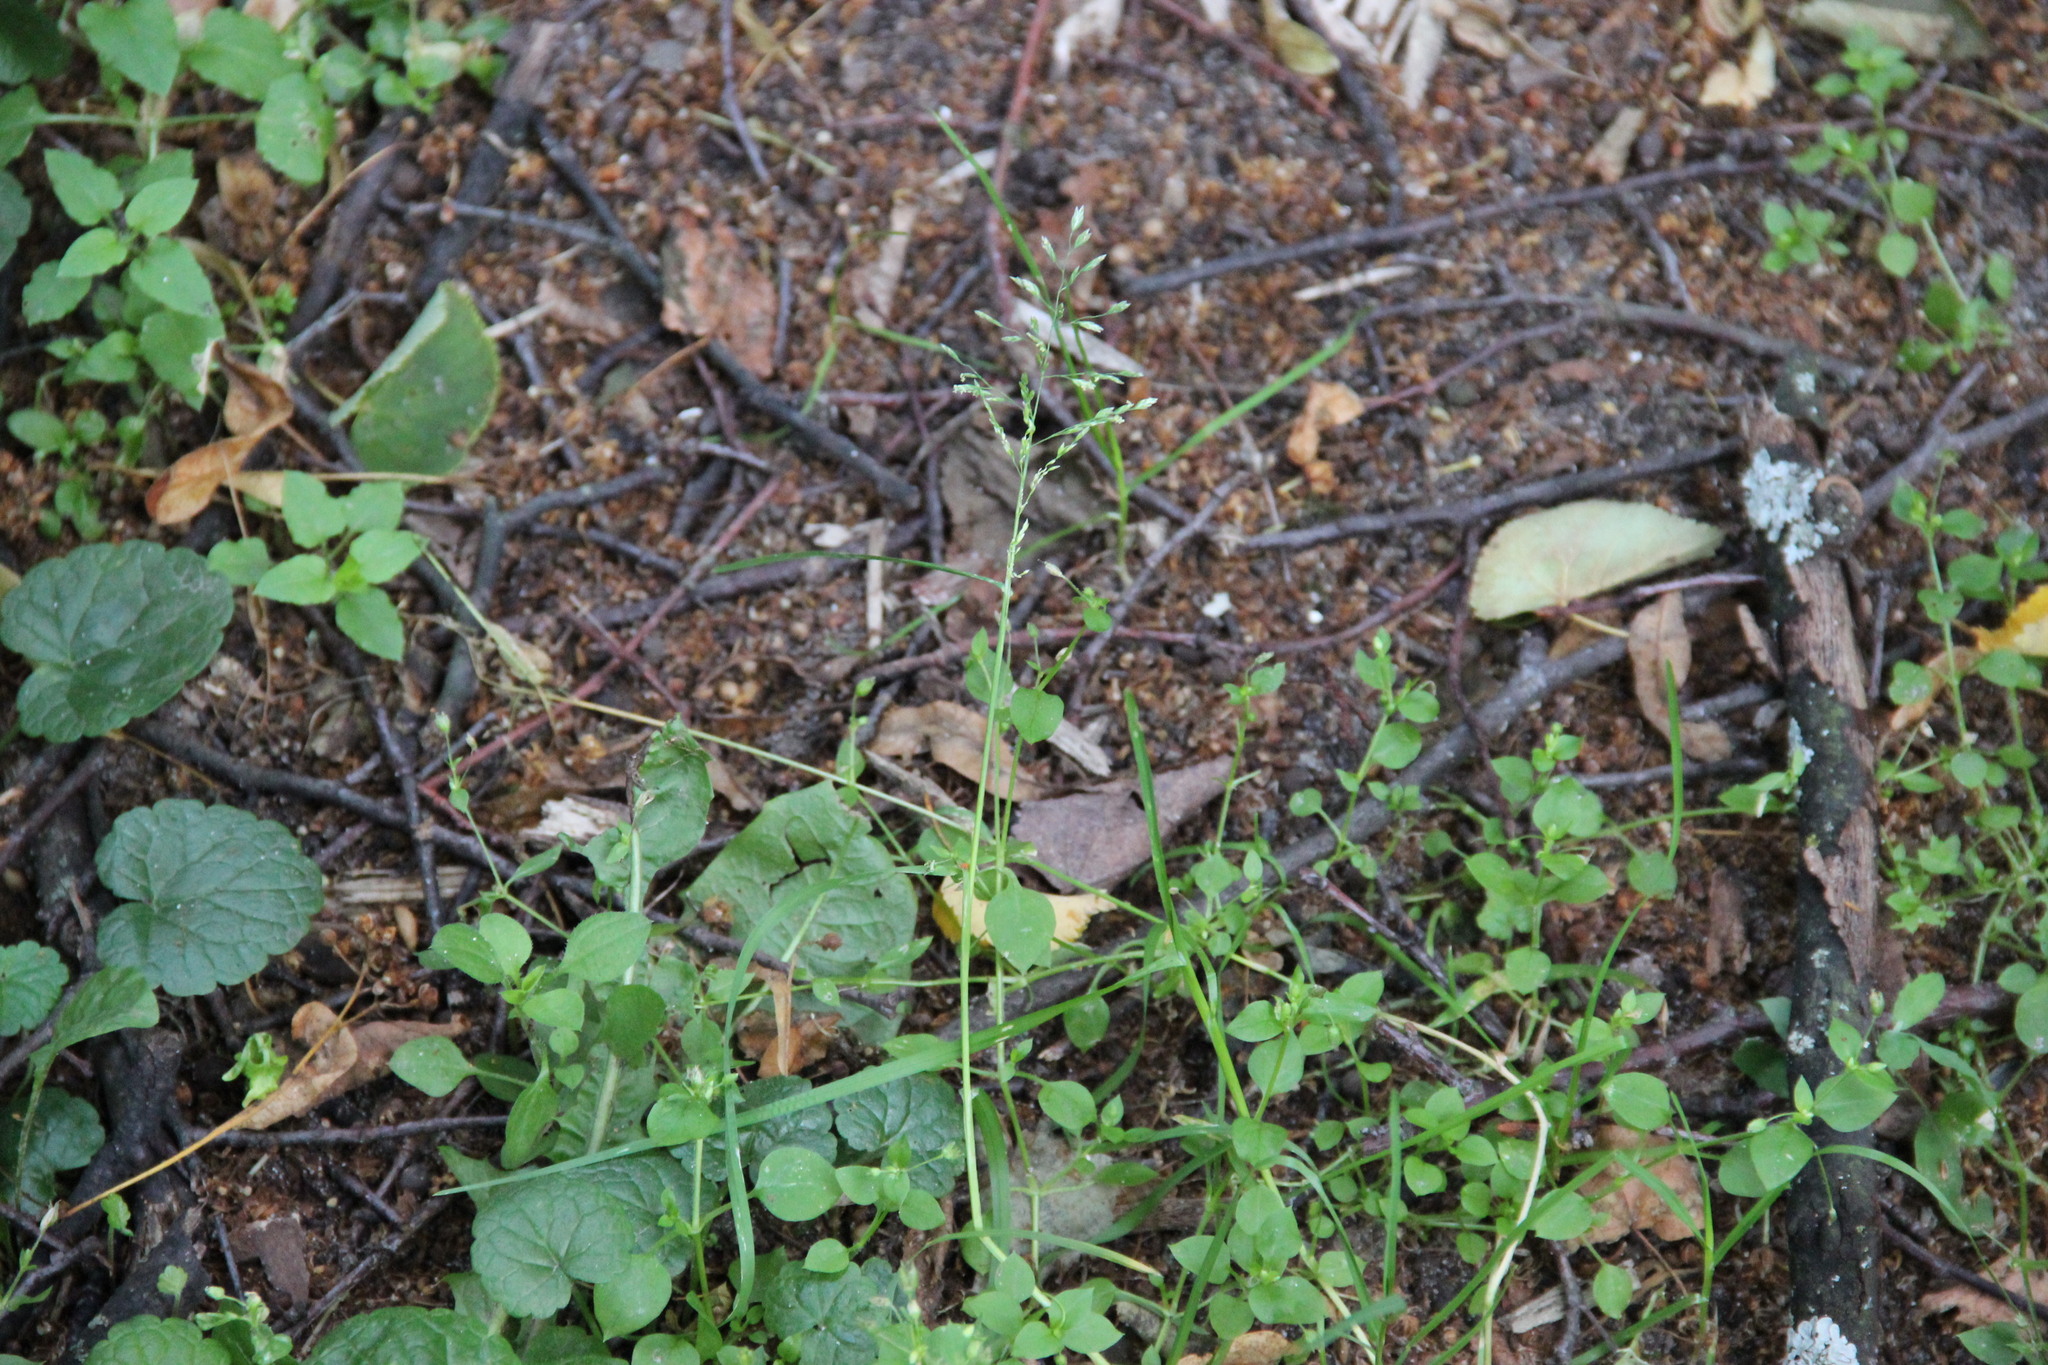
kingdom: Plantae
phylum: Tracheophyta
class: Liliopsida
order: Poales
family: Poaceae
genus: Poa
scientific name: Poa annua
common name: Annual bluegrass
